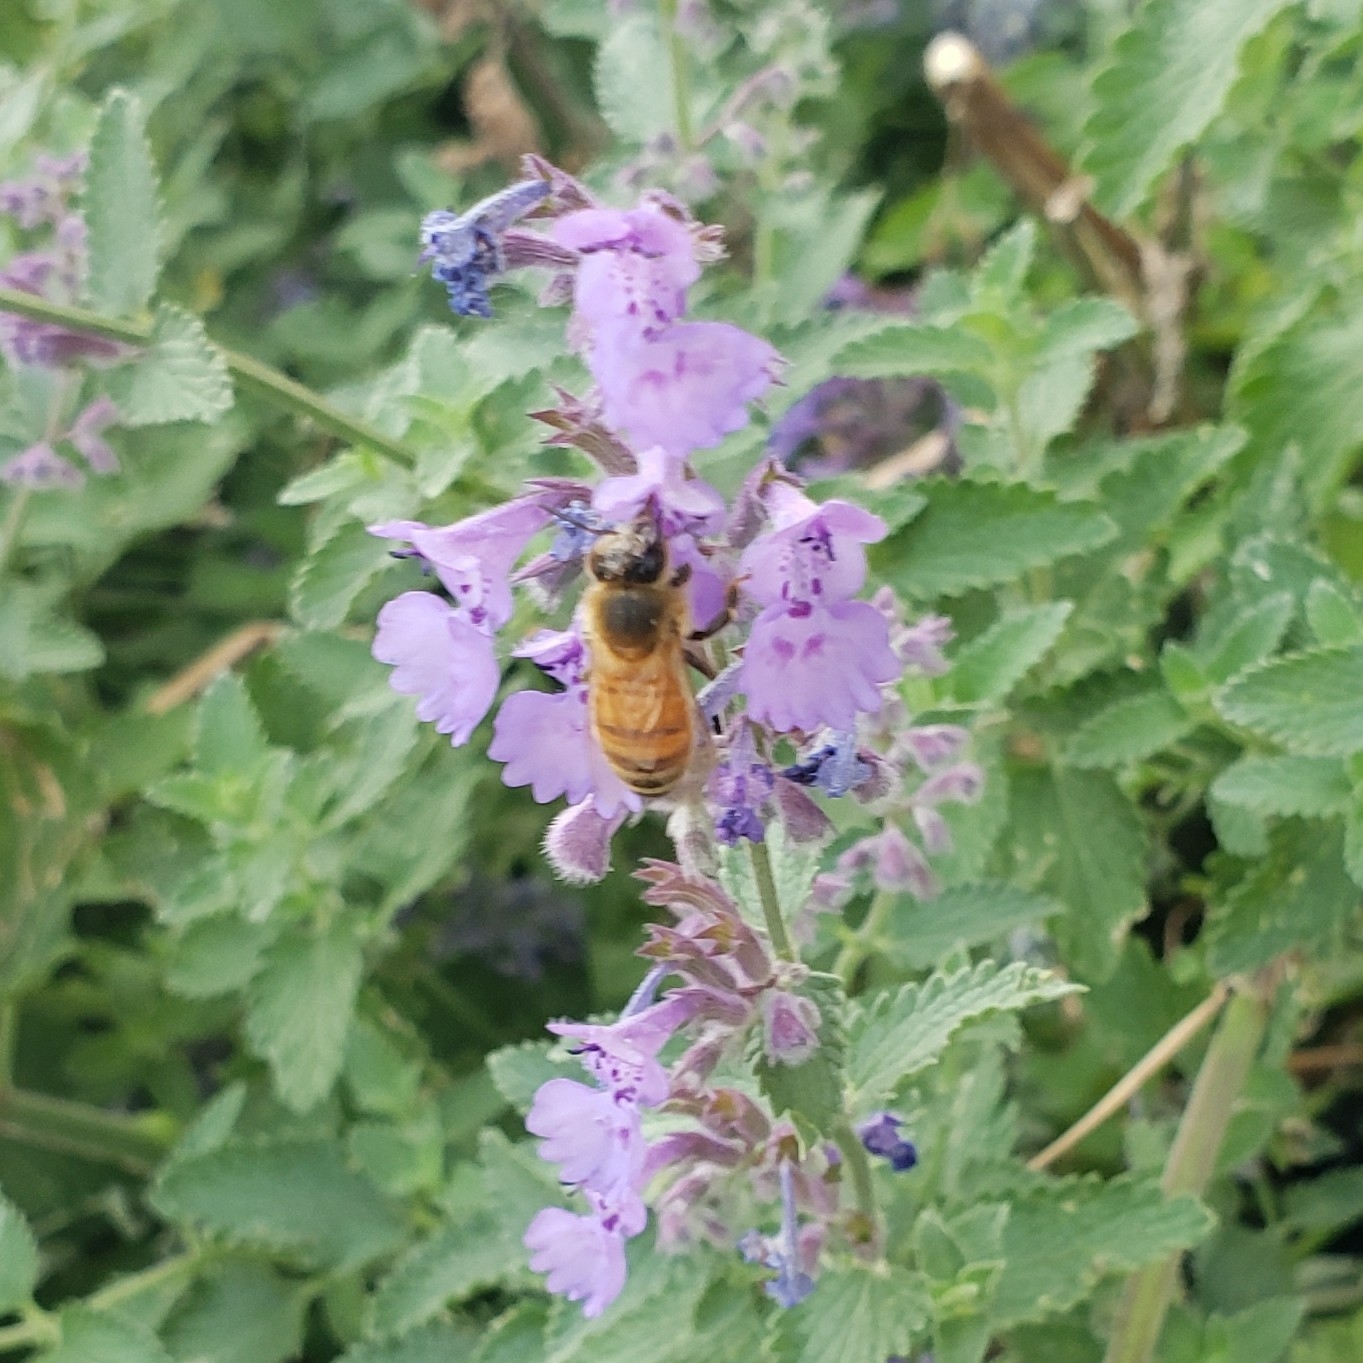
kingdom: Animalia
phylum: Arthropoda
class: Insecta
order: Hymenoptera
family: Apidae
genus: Apis
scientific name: Apis mellifera
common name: Honey bee
